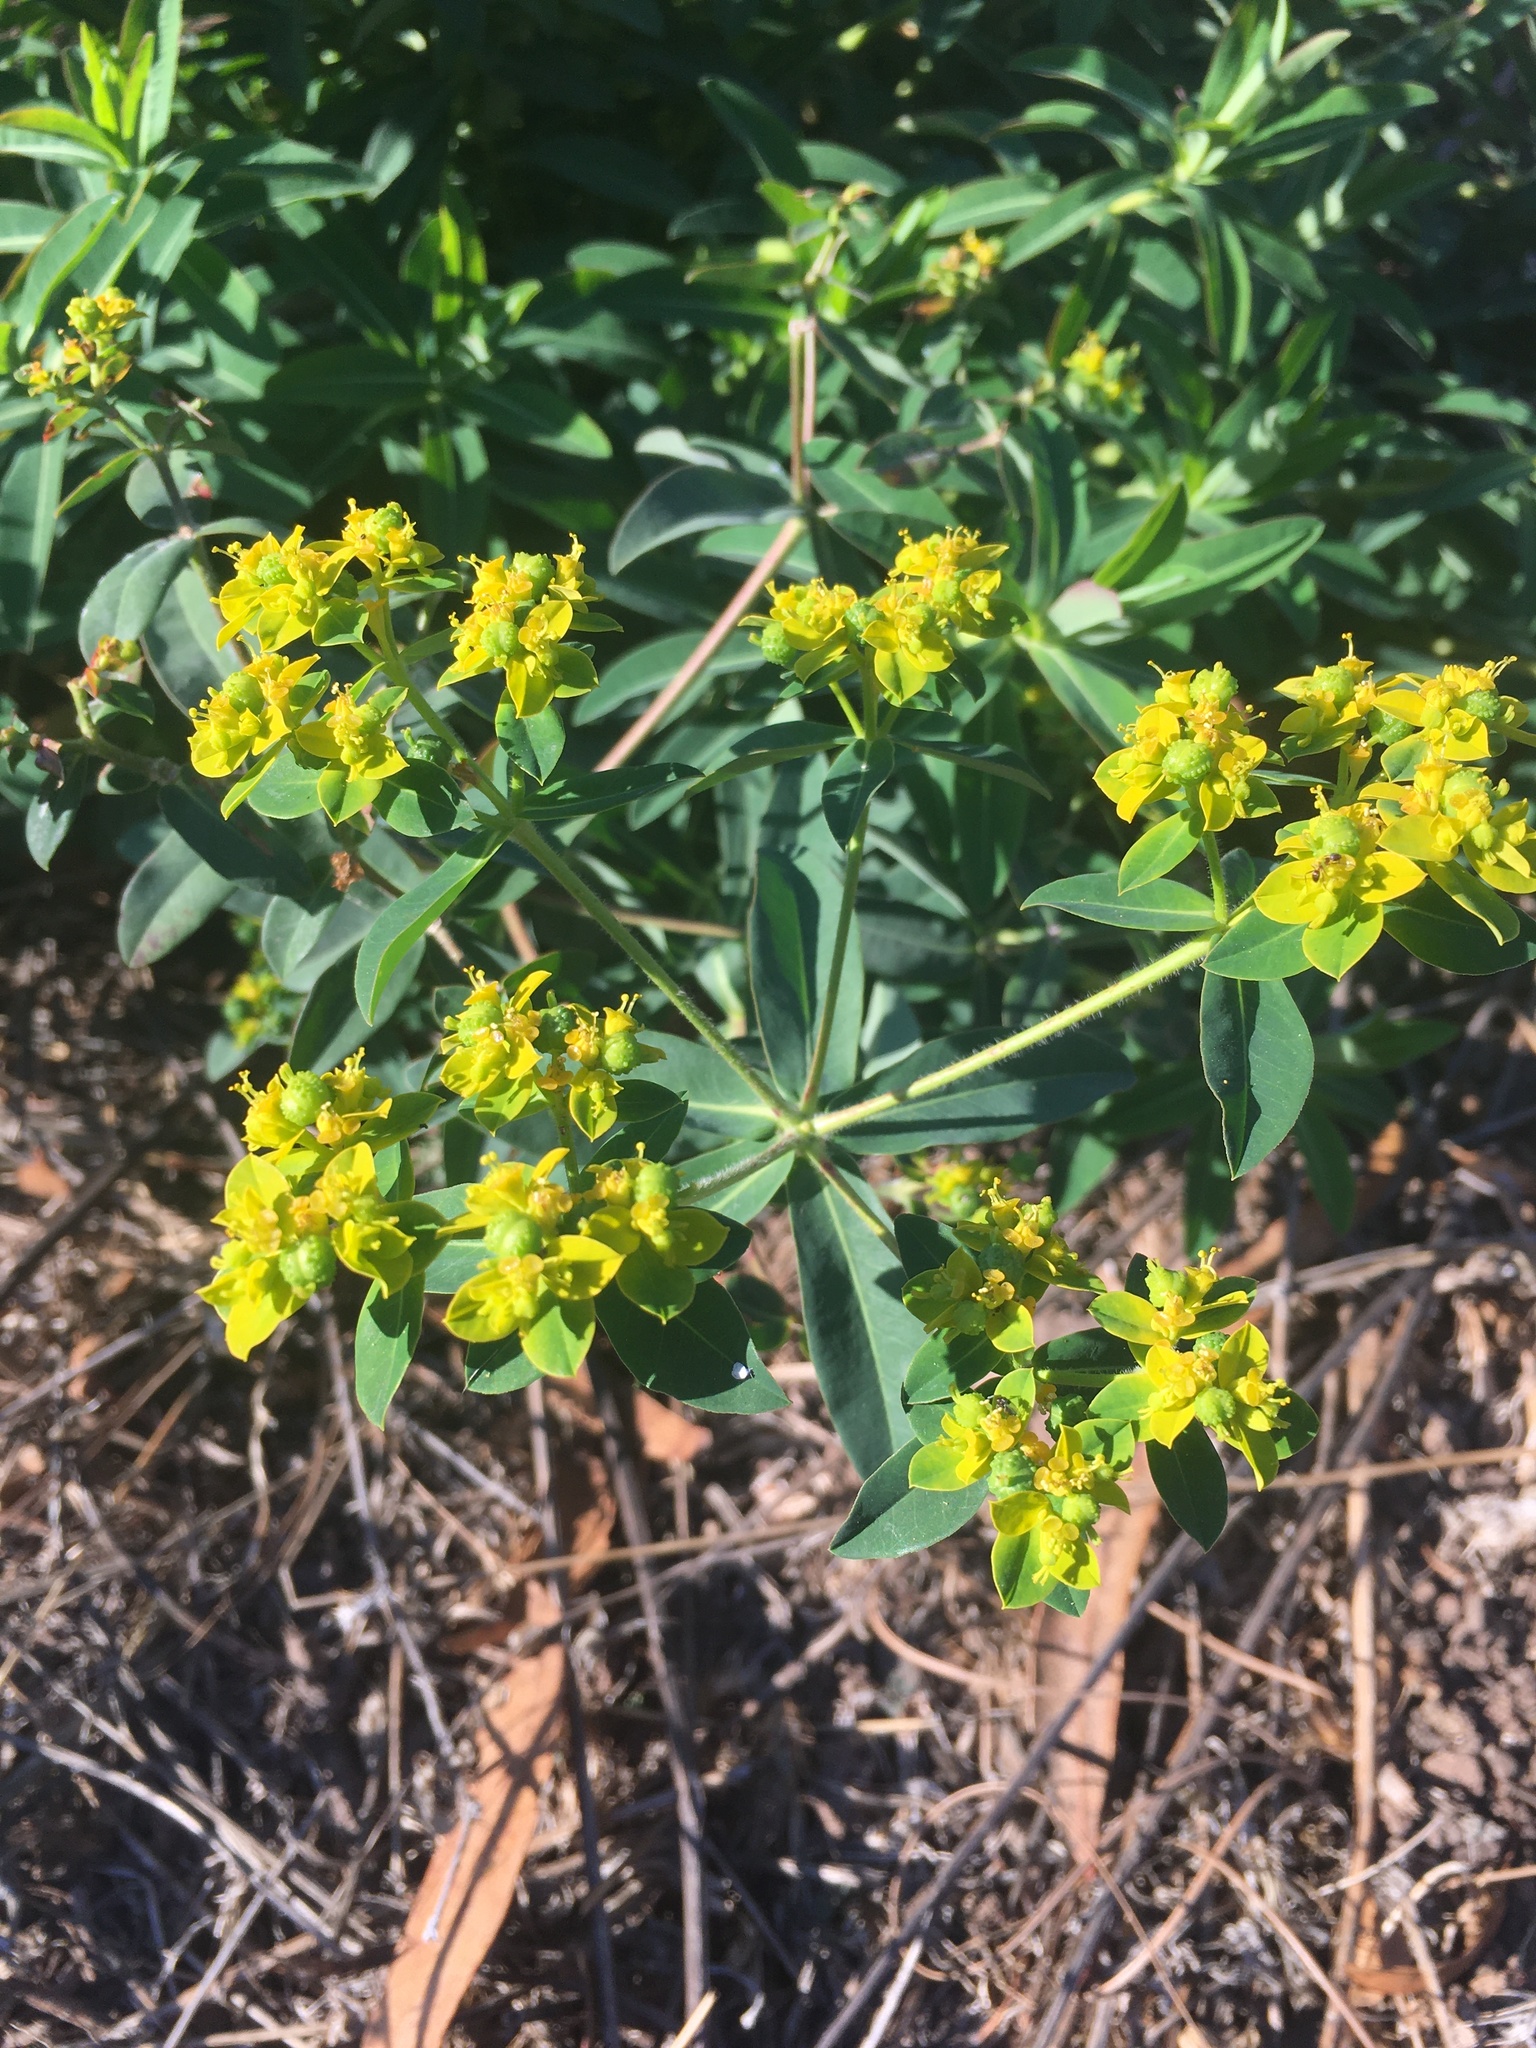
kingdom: Plantae
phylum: Tracheophyta
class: Magnoliopsida
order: Malpighiales
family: Euphorbiaceae
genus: Euphorbia
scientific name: Euphorbia oblongata
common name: Balkan spurge
